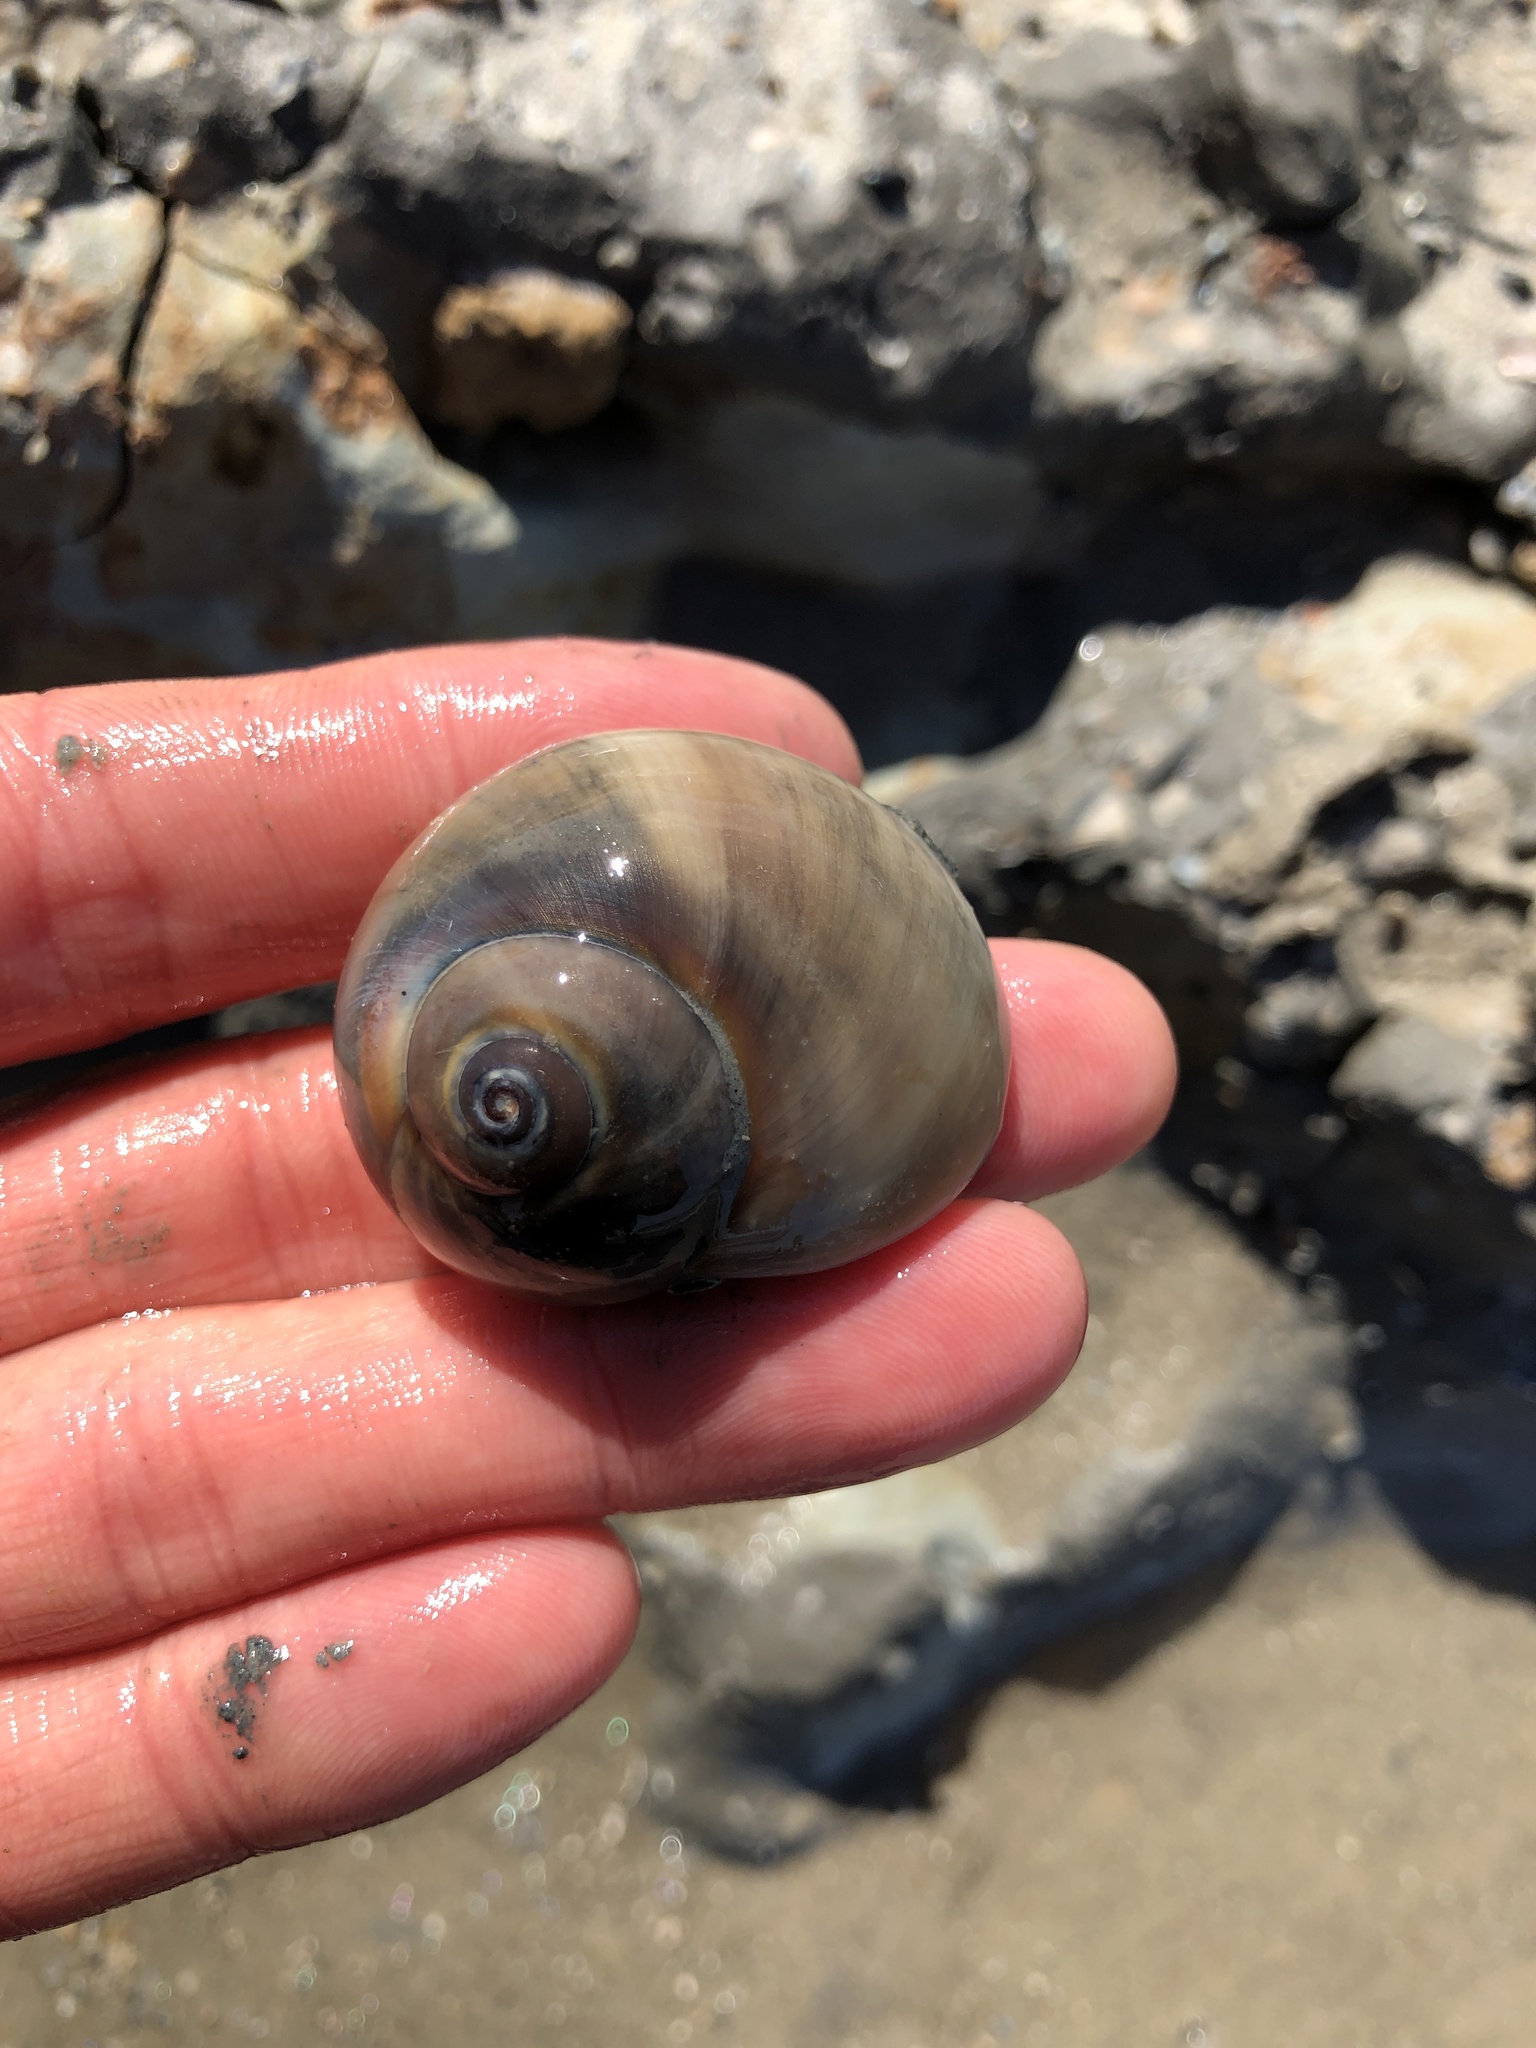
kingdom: Animalia
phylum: Mollusca
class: Gastropoda
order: Littorinimorpha
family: Naticidae
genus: Neverita
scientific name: Neverita delessertiana
